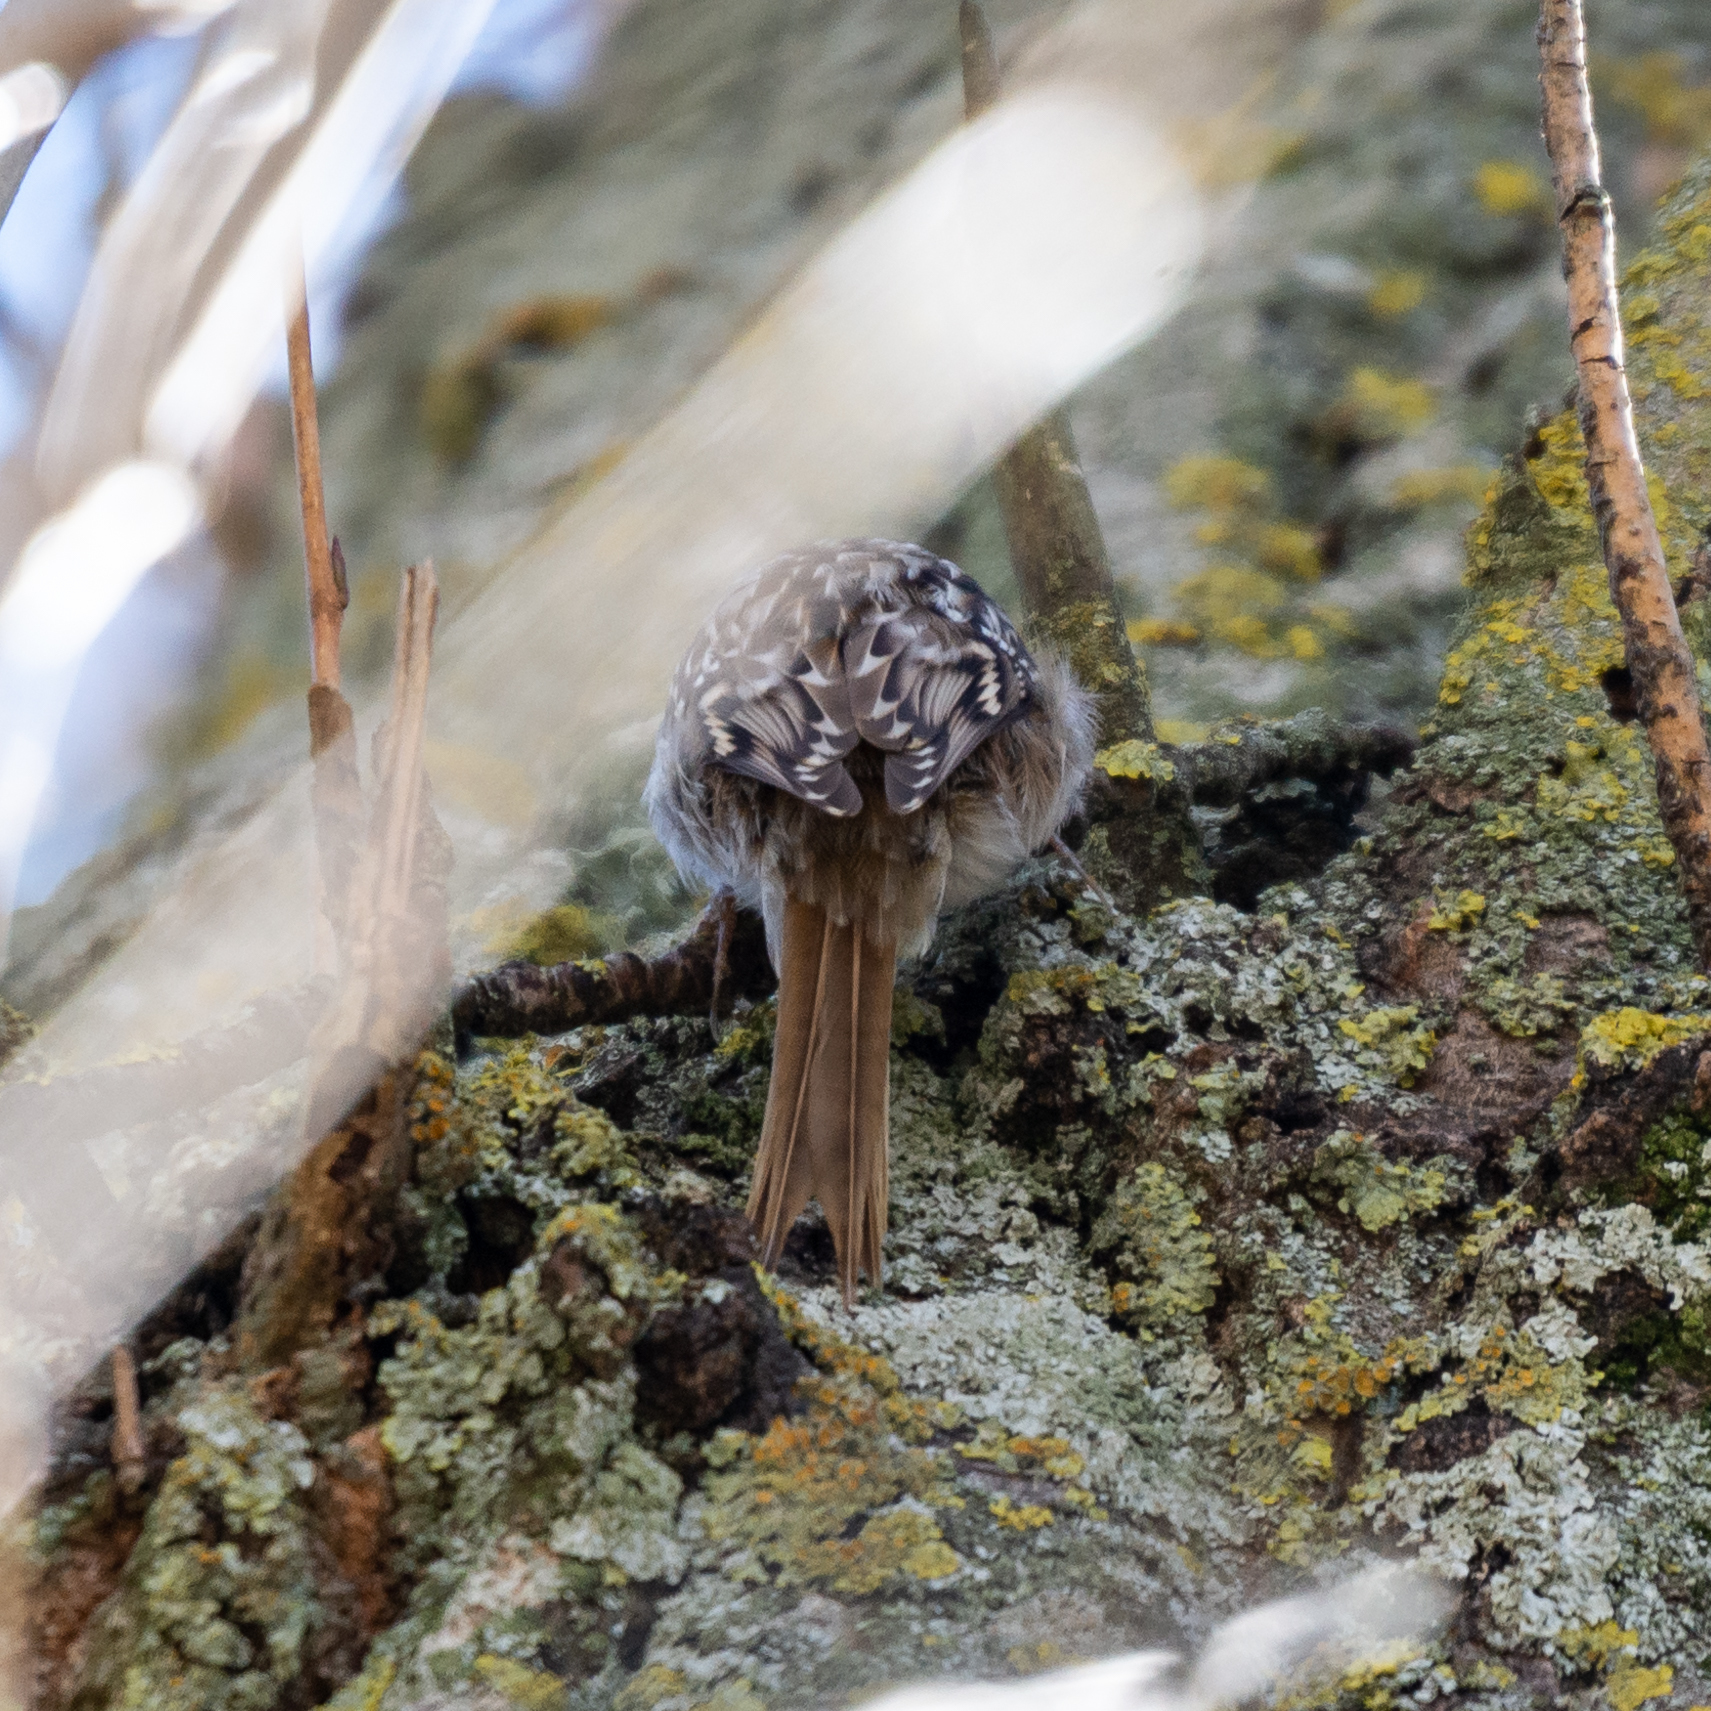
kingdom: Animalia
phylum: Chordata
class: Aves
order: Passeriformes
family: Certhiidae
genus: Certhia
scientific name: Certhia brachydactyla
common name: Short-toed treecreeper
